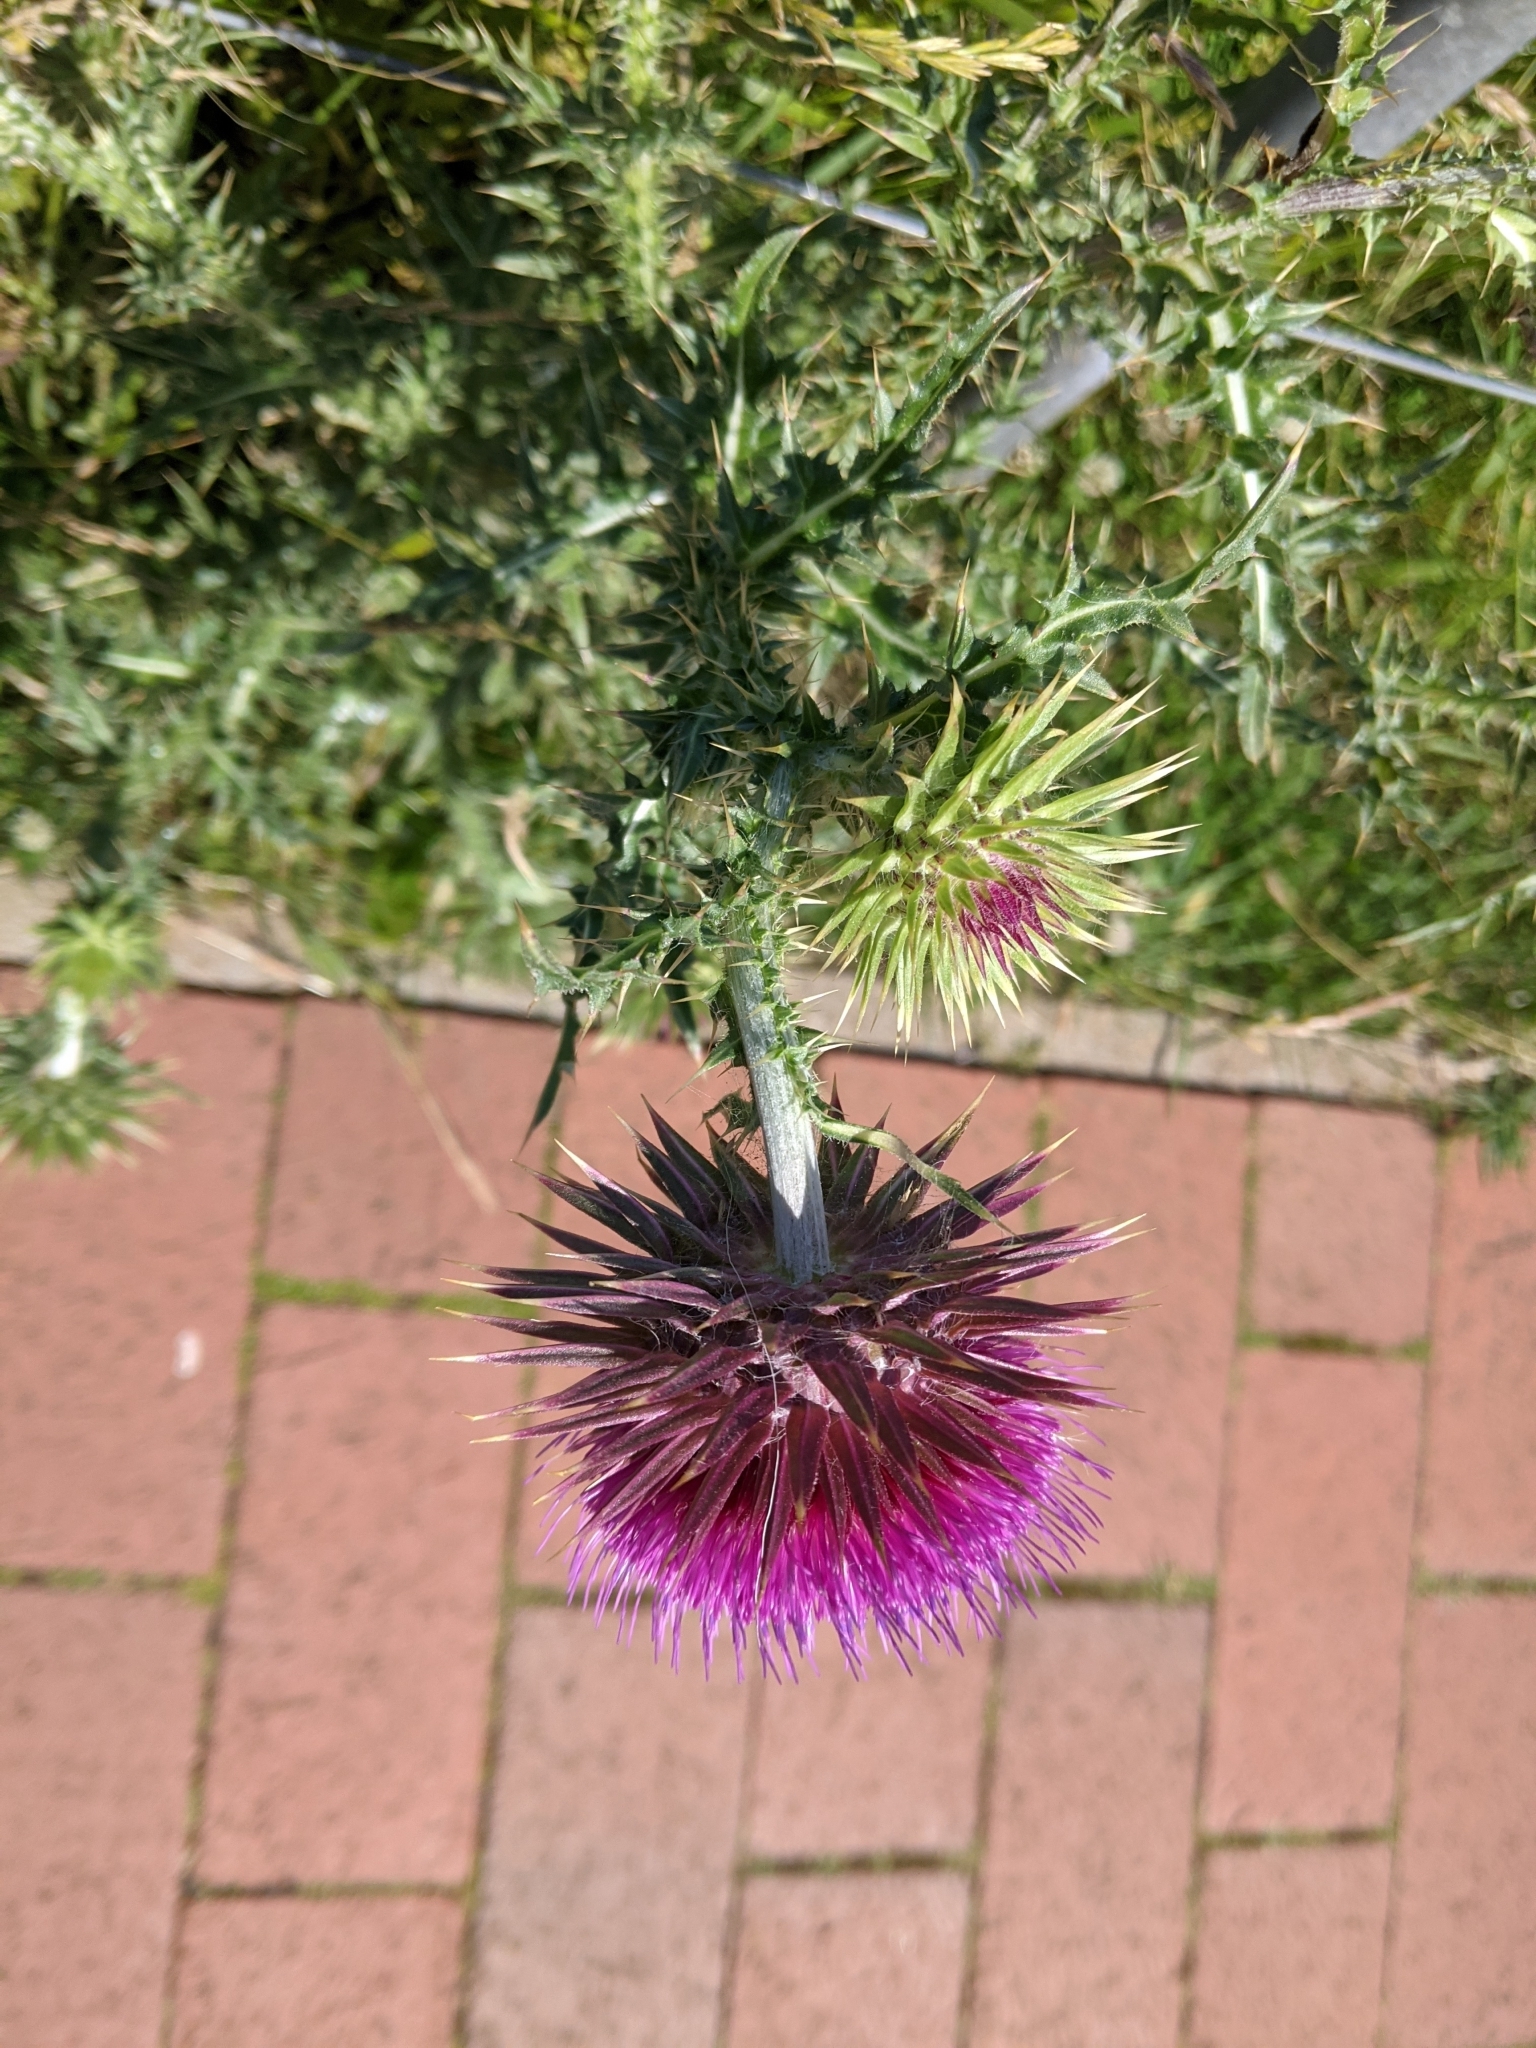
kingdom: Plantae
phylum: Tracheophyta
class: Magnoliopsida
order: Asterales
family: Asteraceae
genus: Carduus
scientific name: Carduus nutans
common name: Musk thistle
